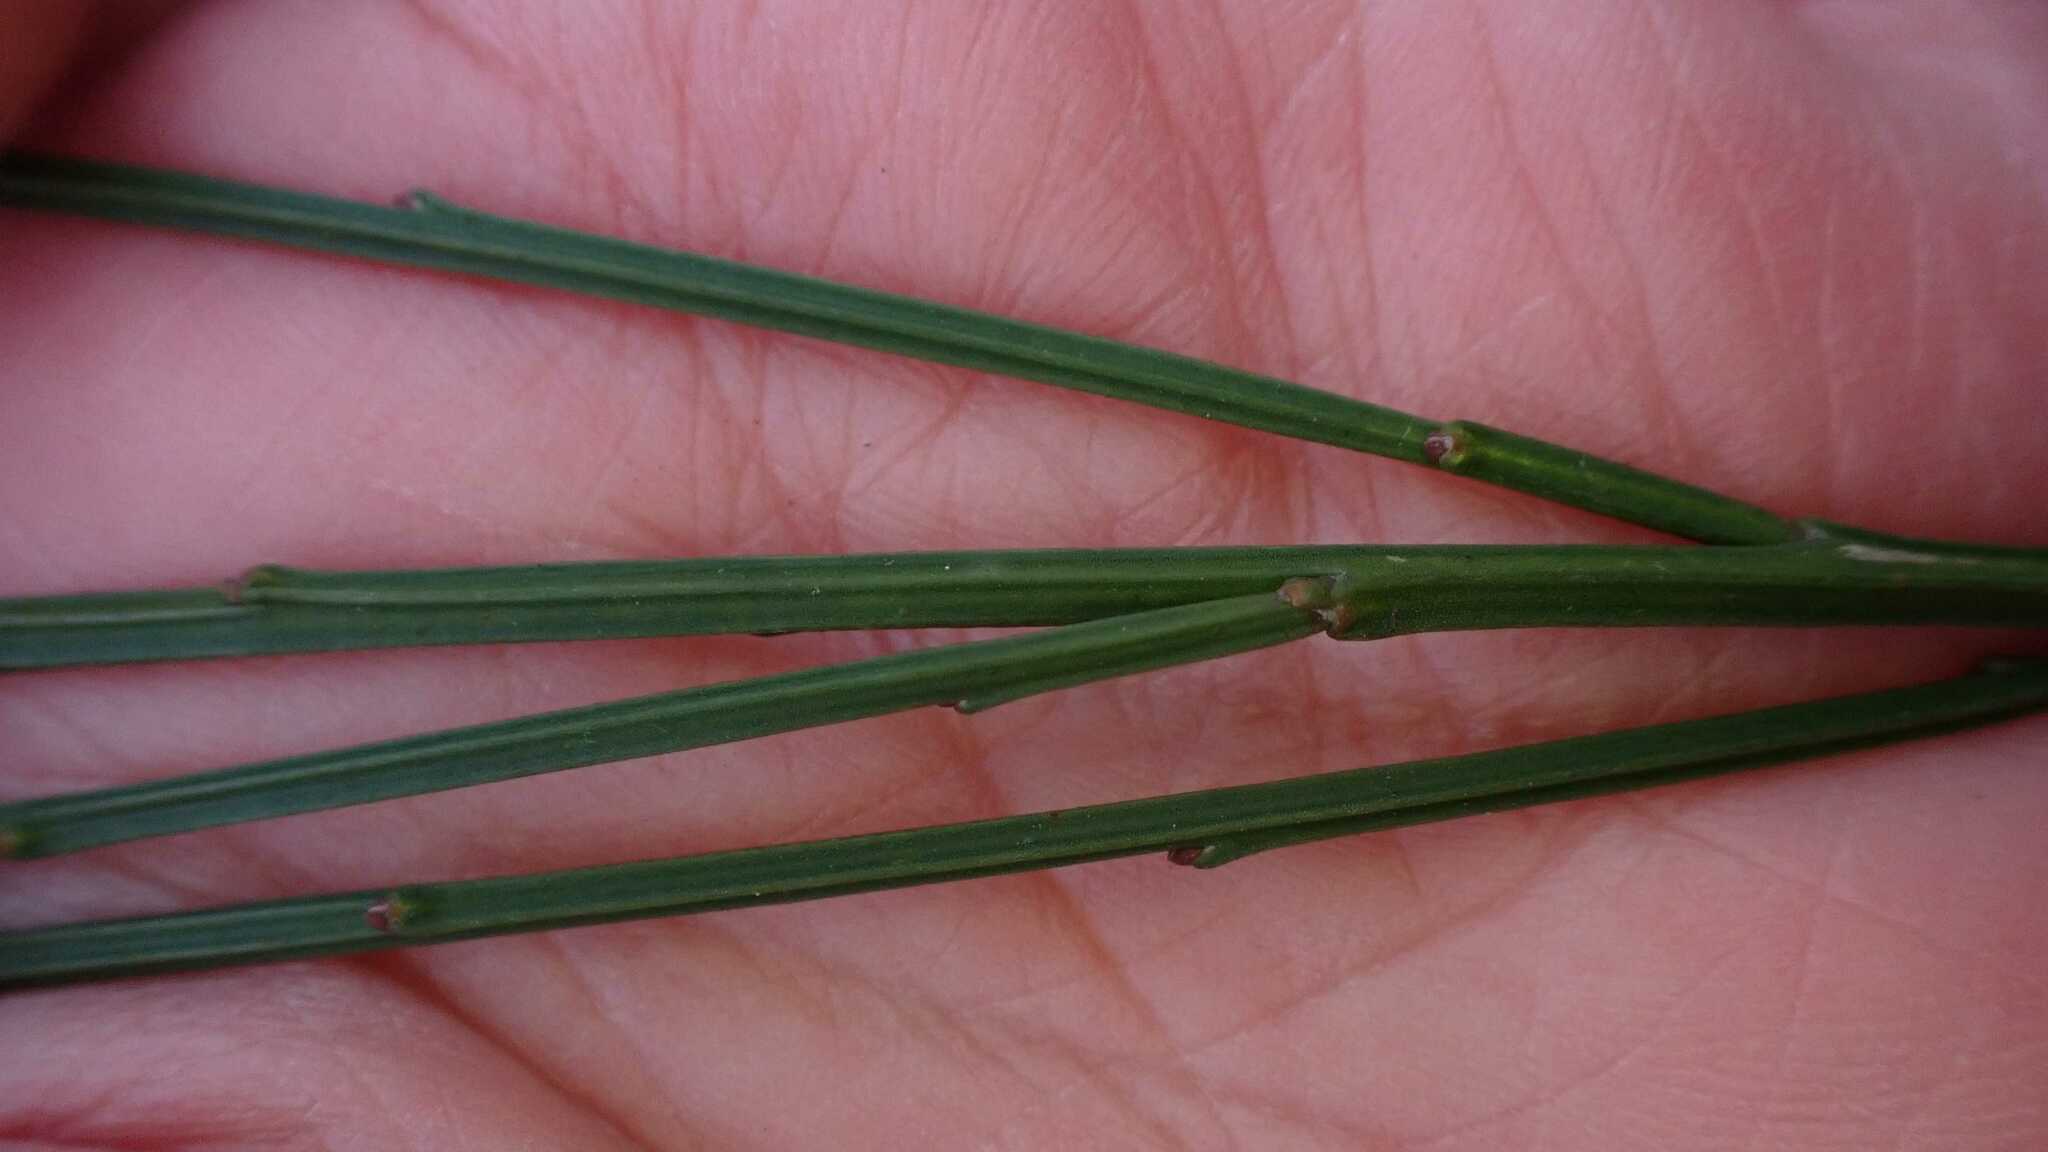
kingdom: Plantae
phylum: Tracheophyta
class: Magnoliopsida
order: Fabales
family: Fabaceae
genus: Cytisus
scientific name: Cytisus scoparius
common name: Scotch broom
